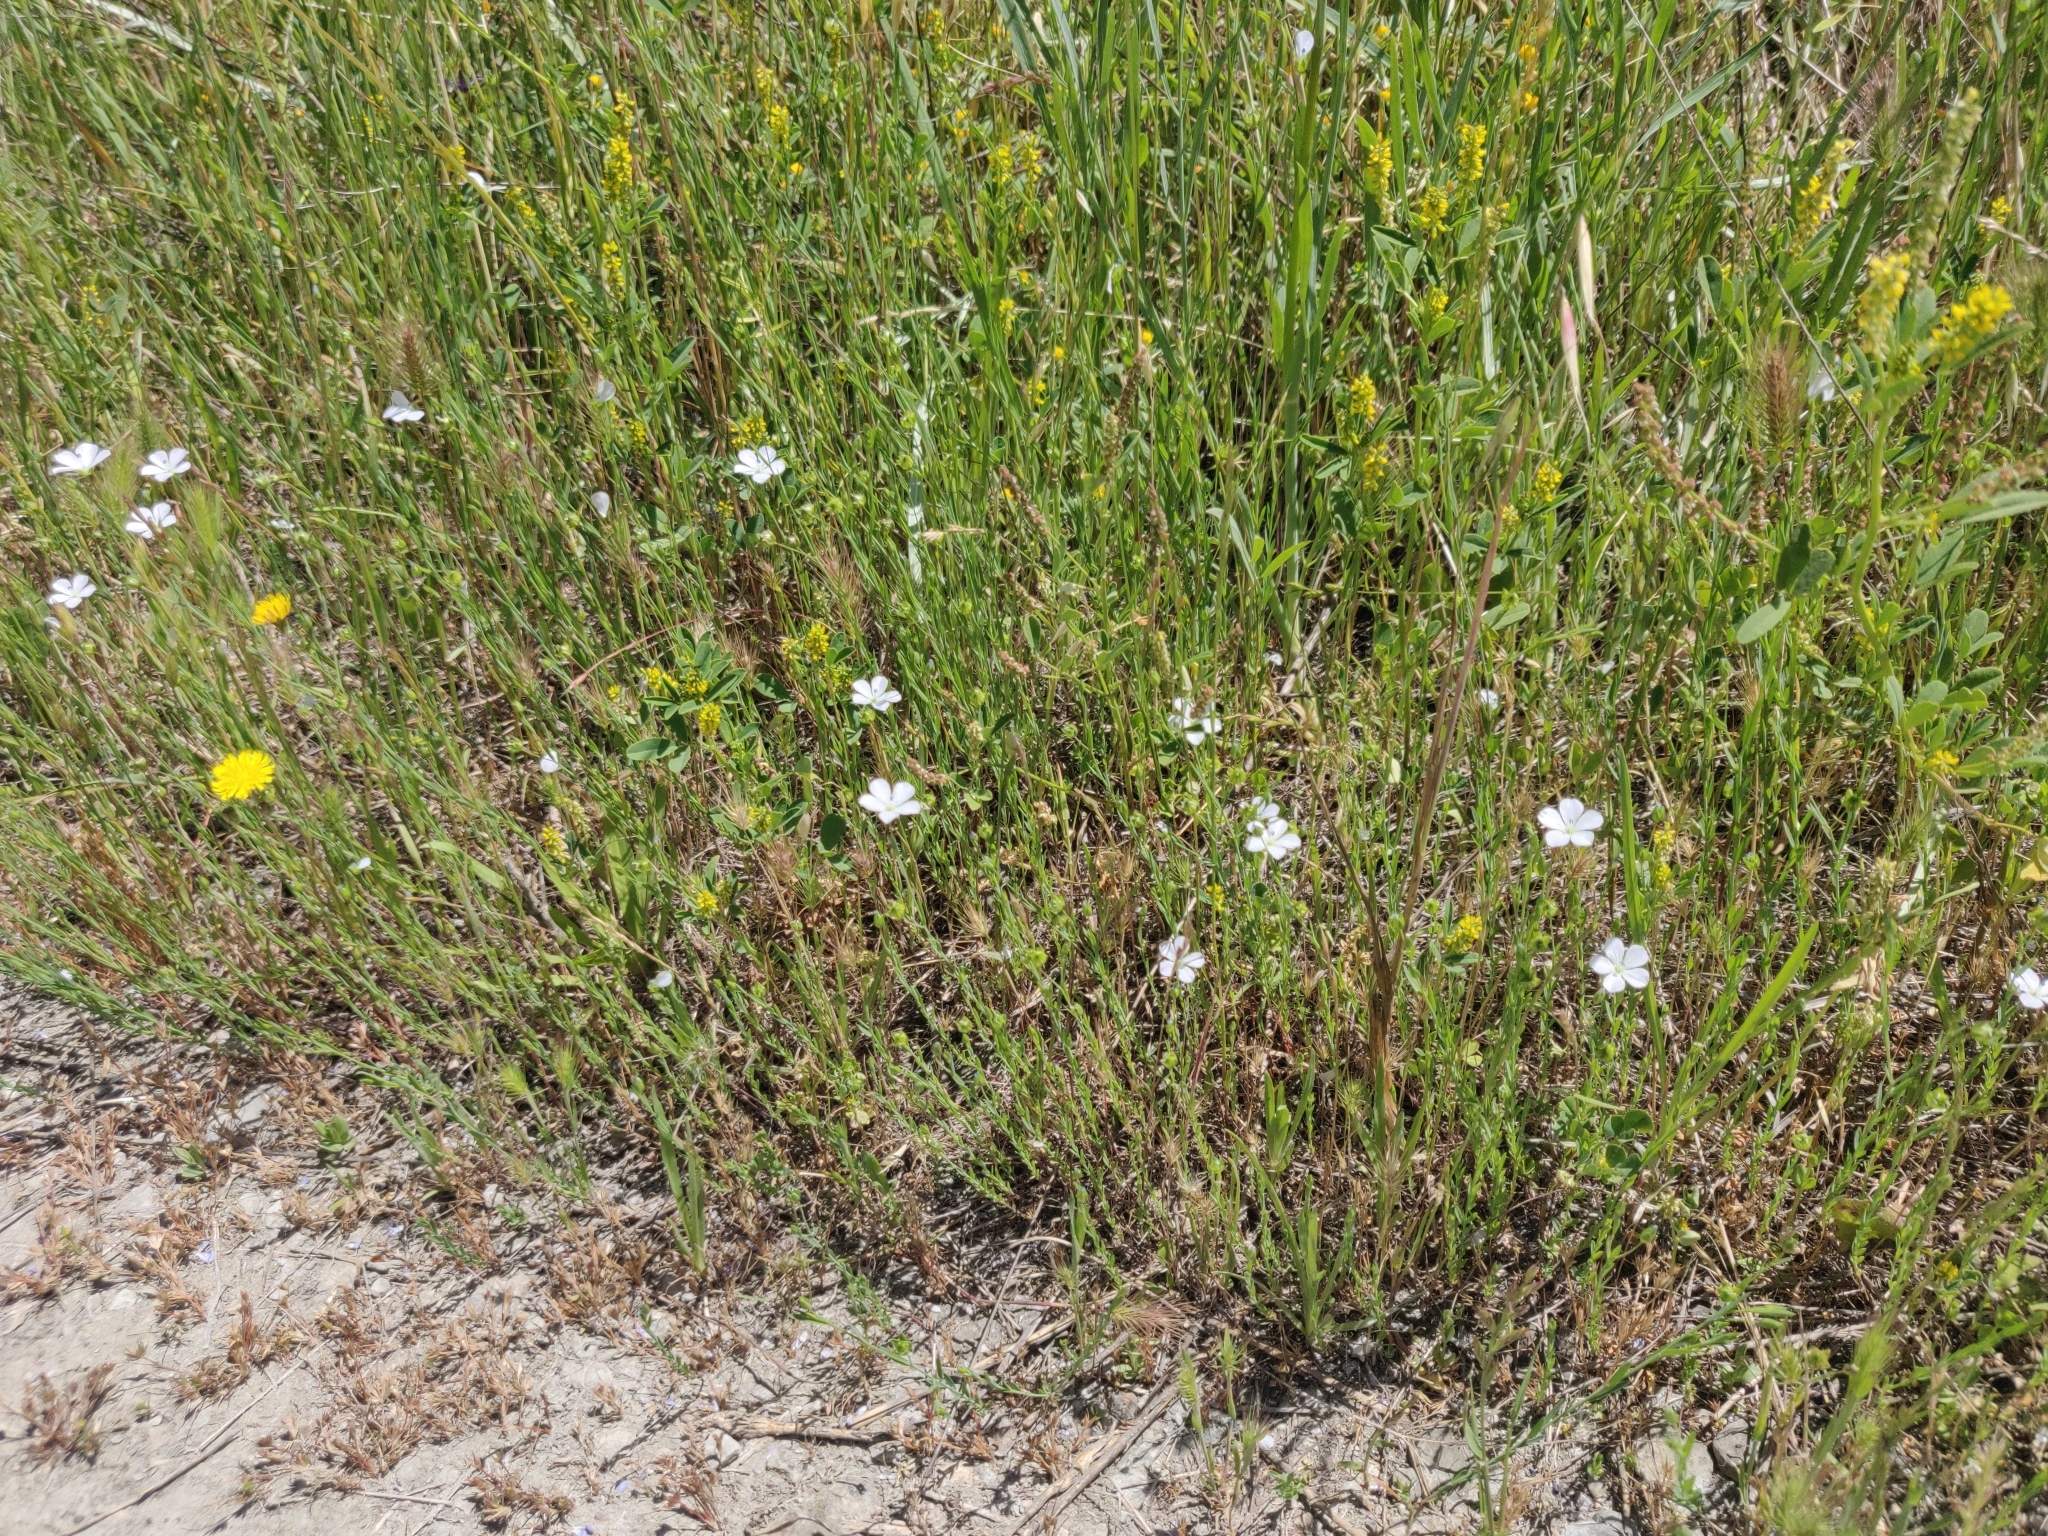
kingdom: Plantae
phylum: Tracheophyta
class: Magnoliopsida
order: Malpighiales
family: Linaceae
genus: Linum
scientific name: Linum bienne
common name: Pale flax
